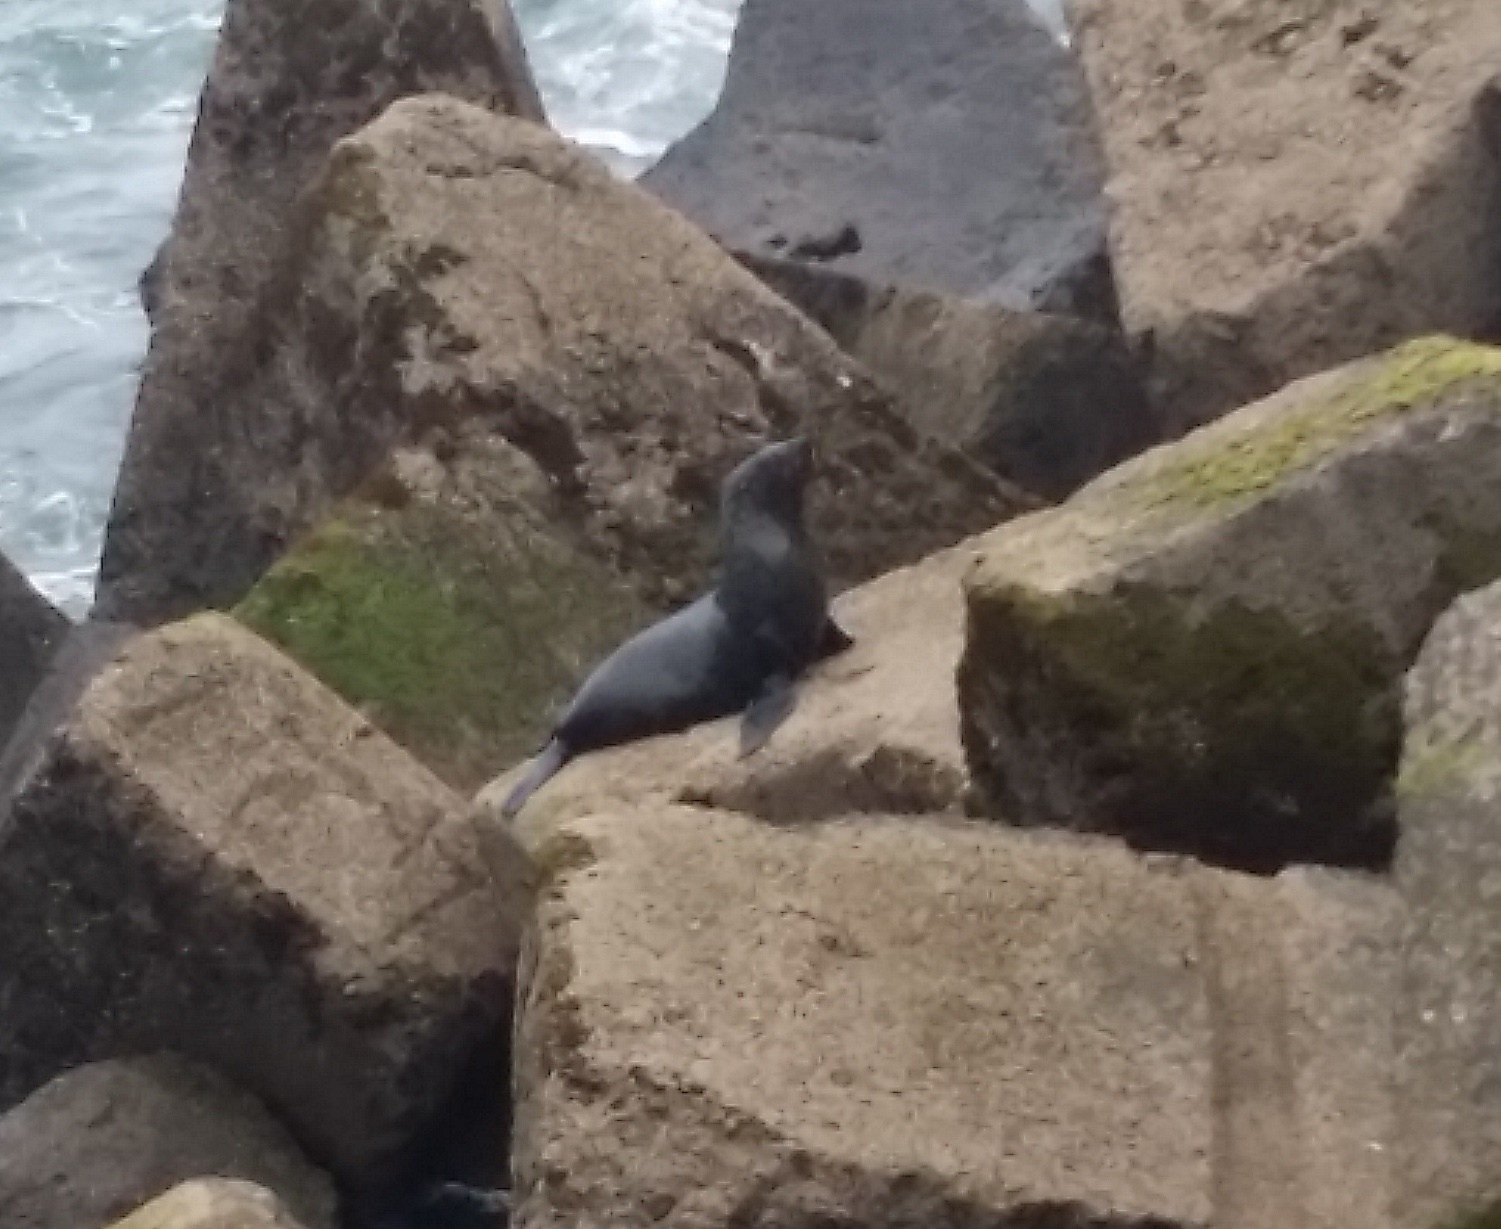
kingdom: Animalia
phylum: Chordata
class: Mammalia
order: Carnivora
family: Otariidae
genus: Arctocephalus
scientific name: Arctocephalus forsteri
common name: New zealand fur seal
